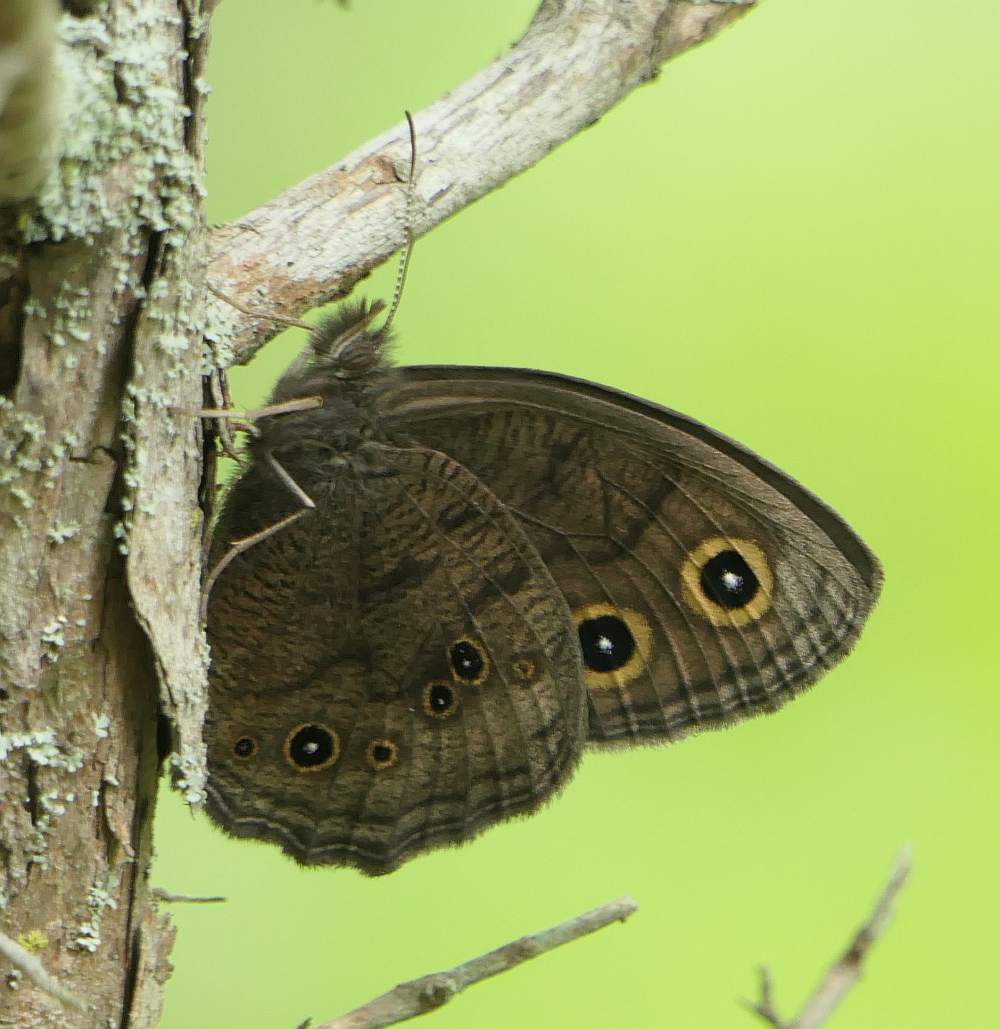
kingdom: Animalia
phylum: Arthropoda
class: Insecta
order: Lepidoptera
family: Nymphalidae
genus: Cercyonis
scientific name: Cercyonis pegala
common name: Common wood-nymph
